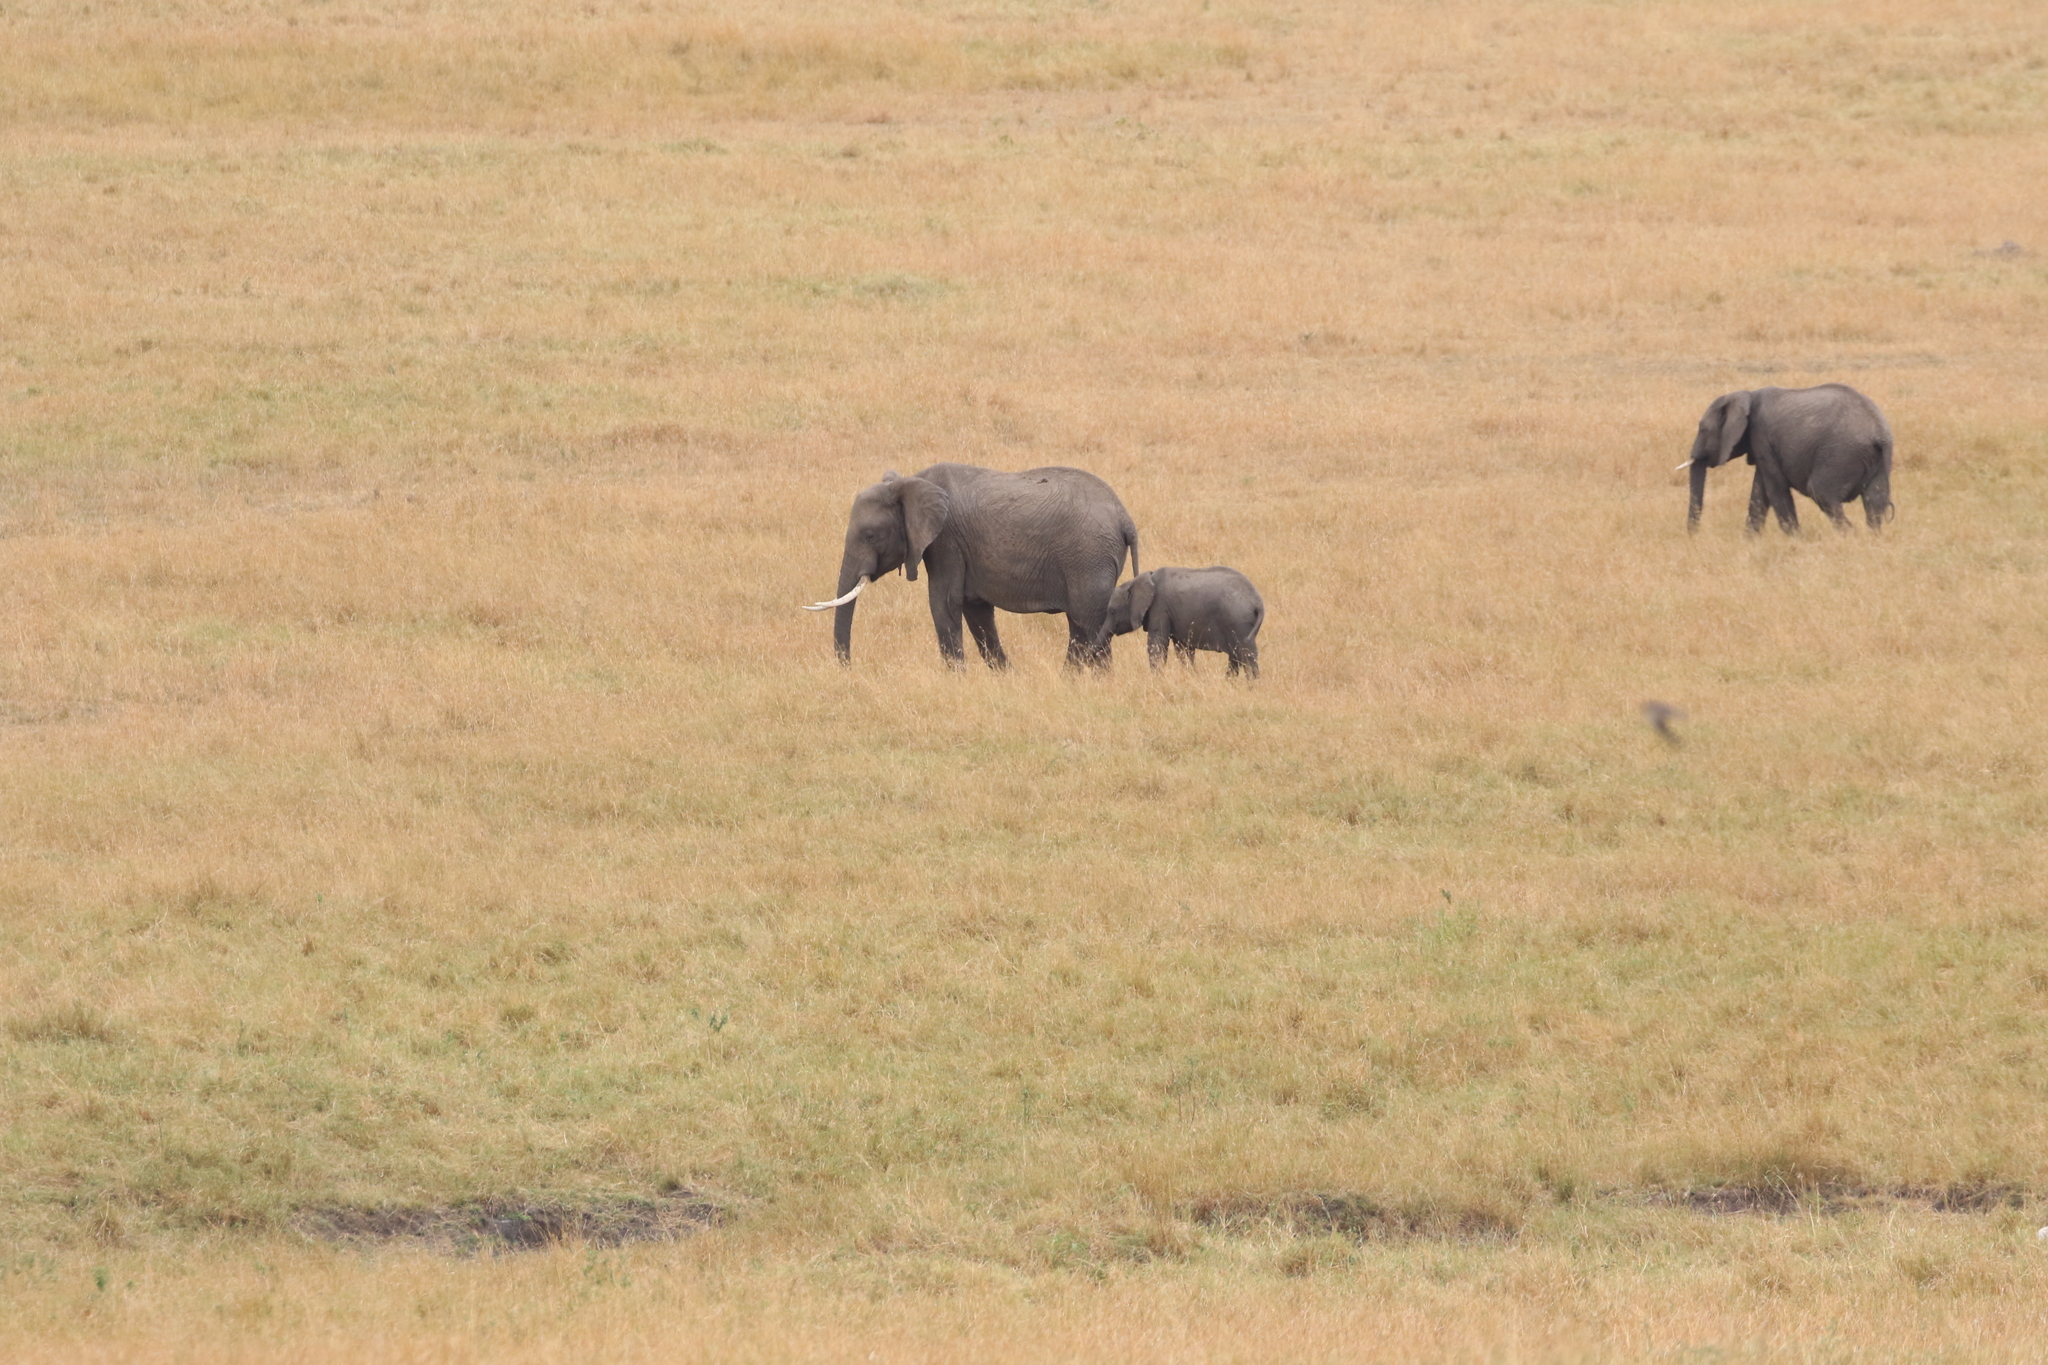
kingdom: Animalia
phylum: Chordata
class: Mammalia
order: Proboscidea
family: Elephantidae
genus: Loxodonta
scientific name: Loxodonta africana
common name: African elephant
